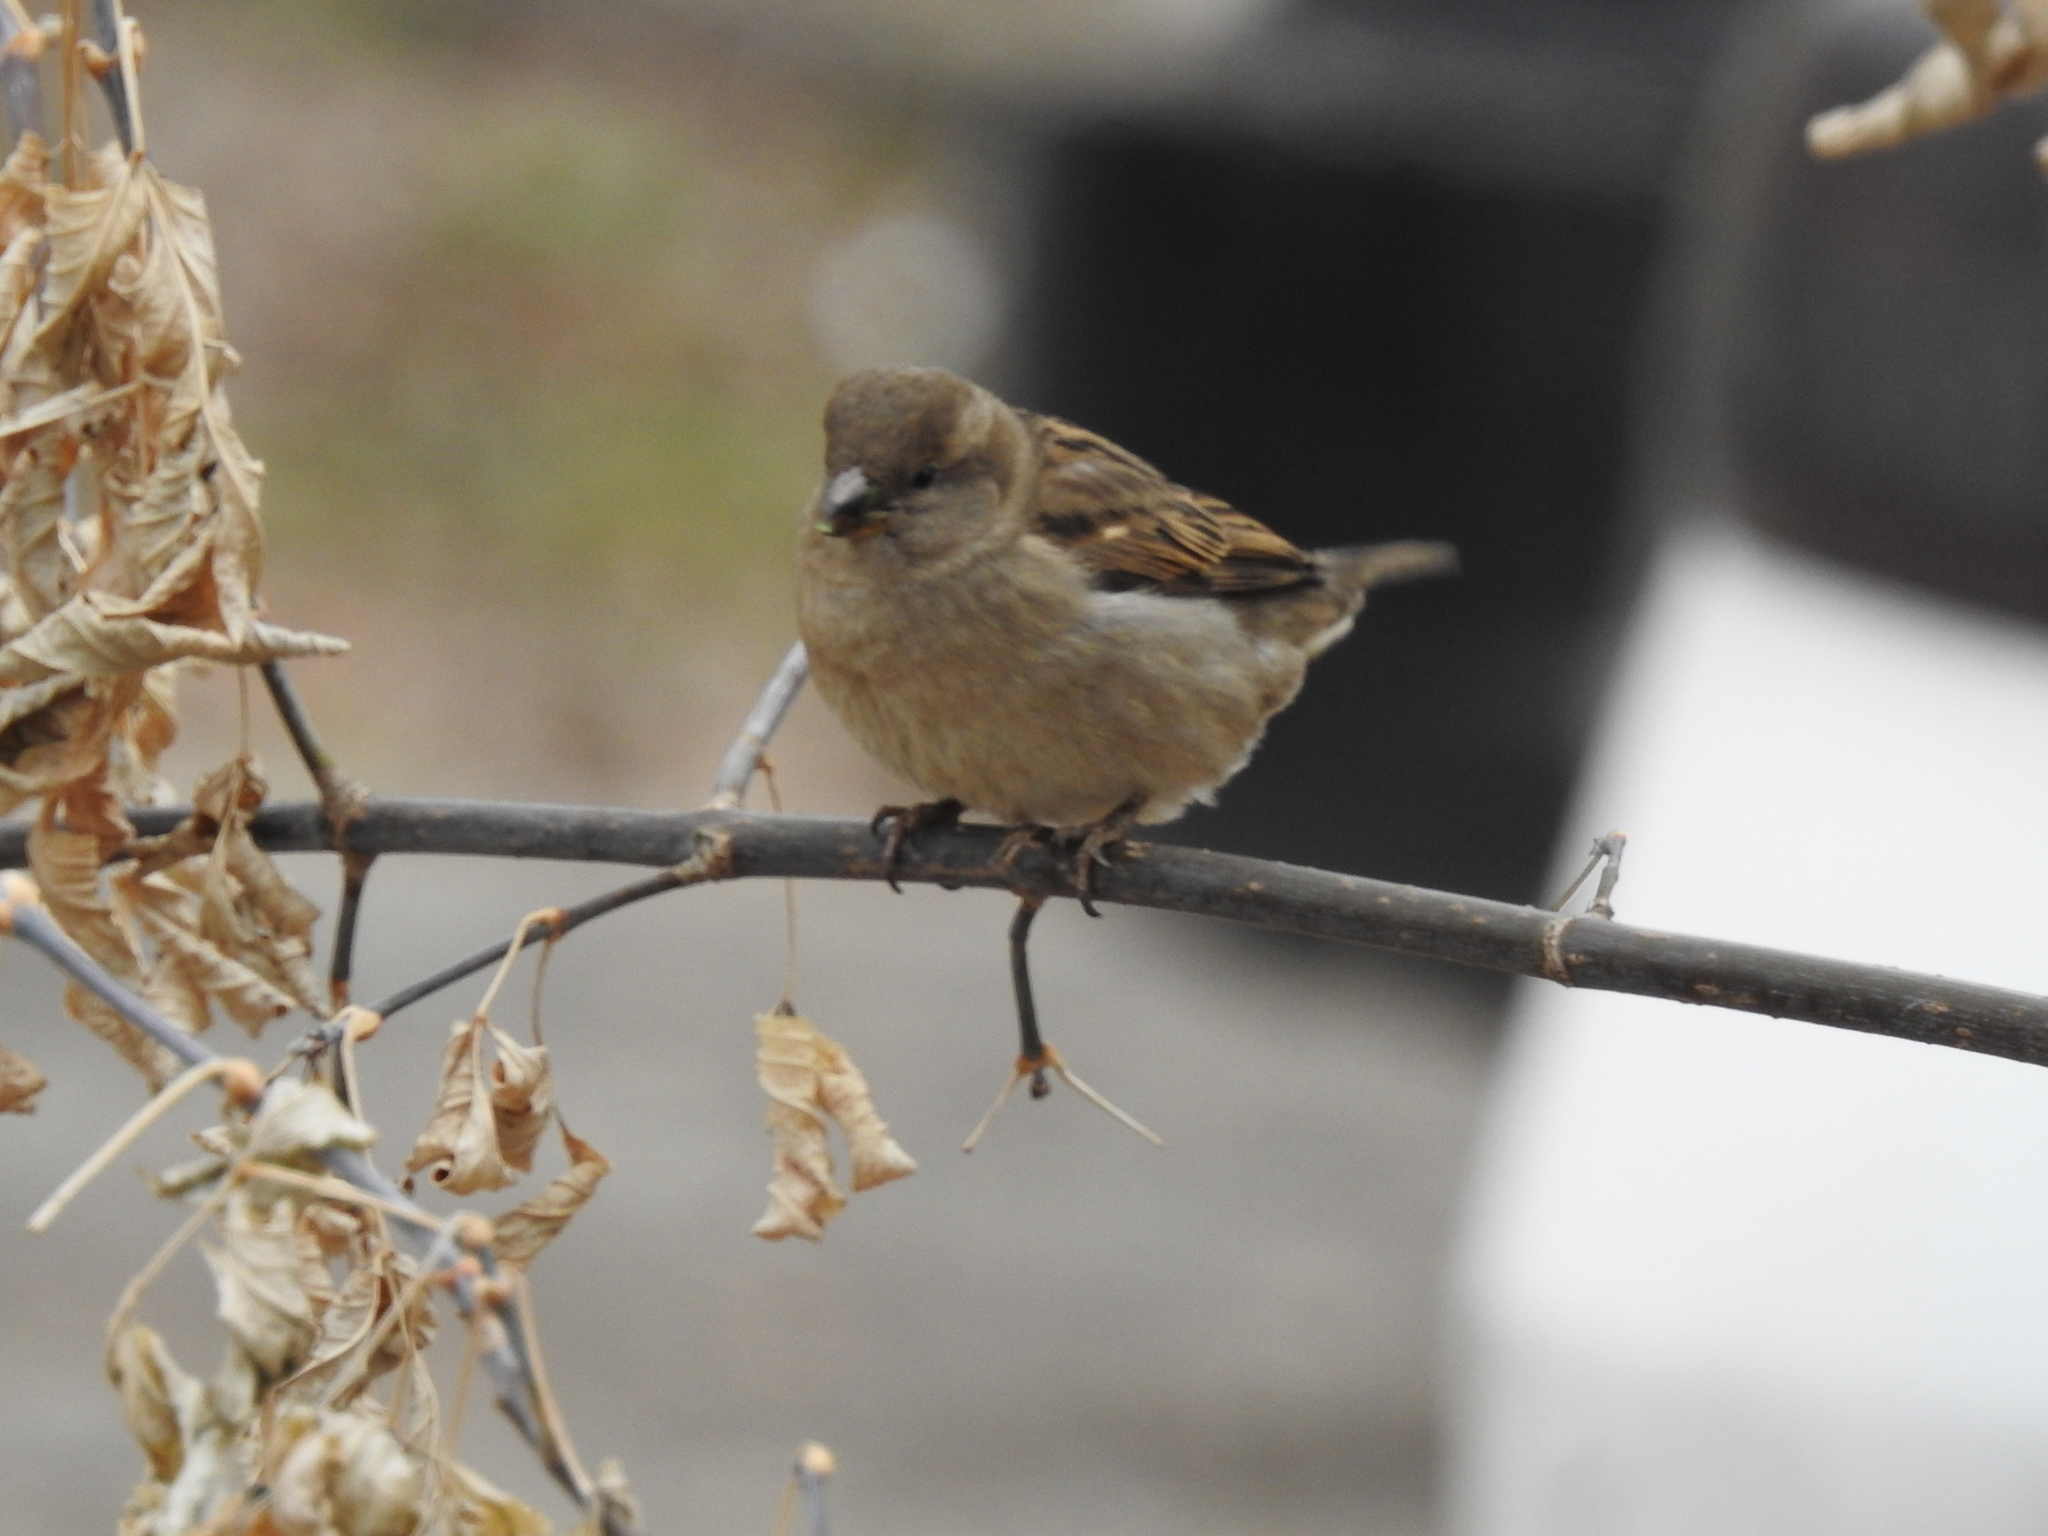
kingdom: Animalia
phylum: Chordata
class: Aves
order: Passeriformes
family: Passeridae
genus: Passer
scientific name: Passer domesticus
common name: House sparrow
